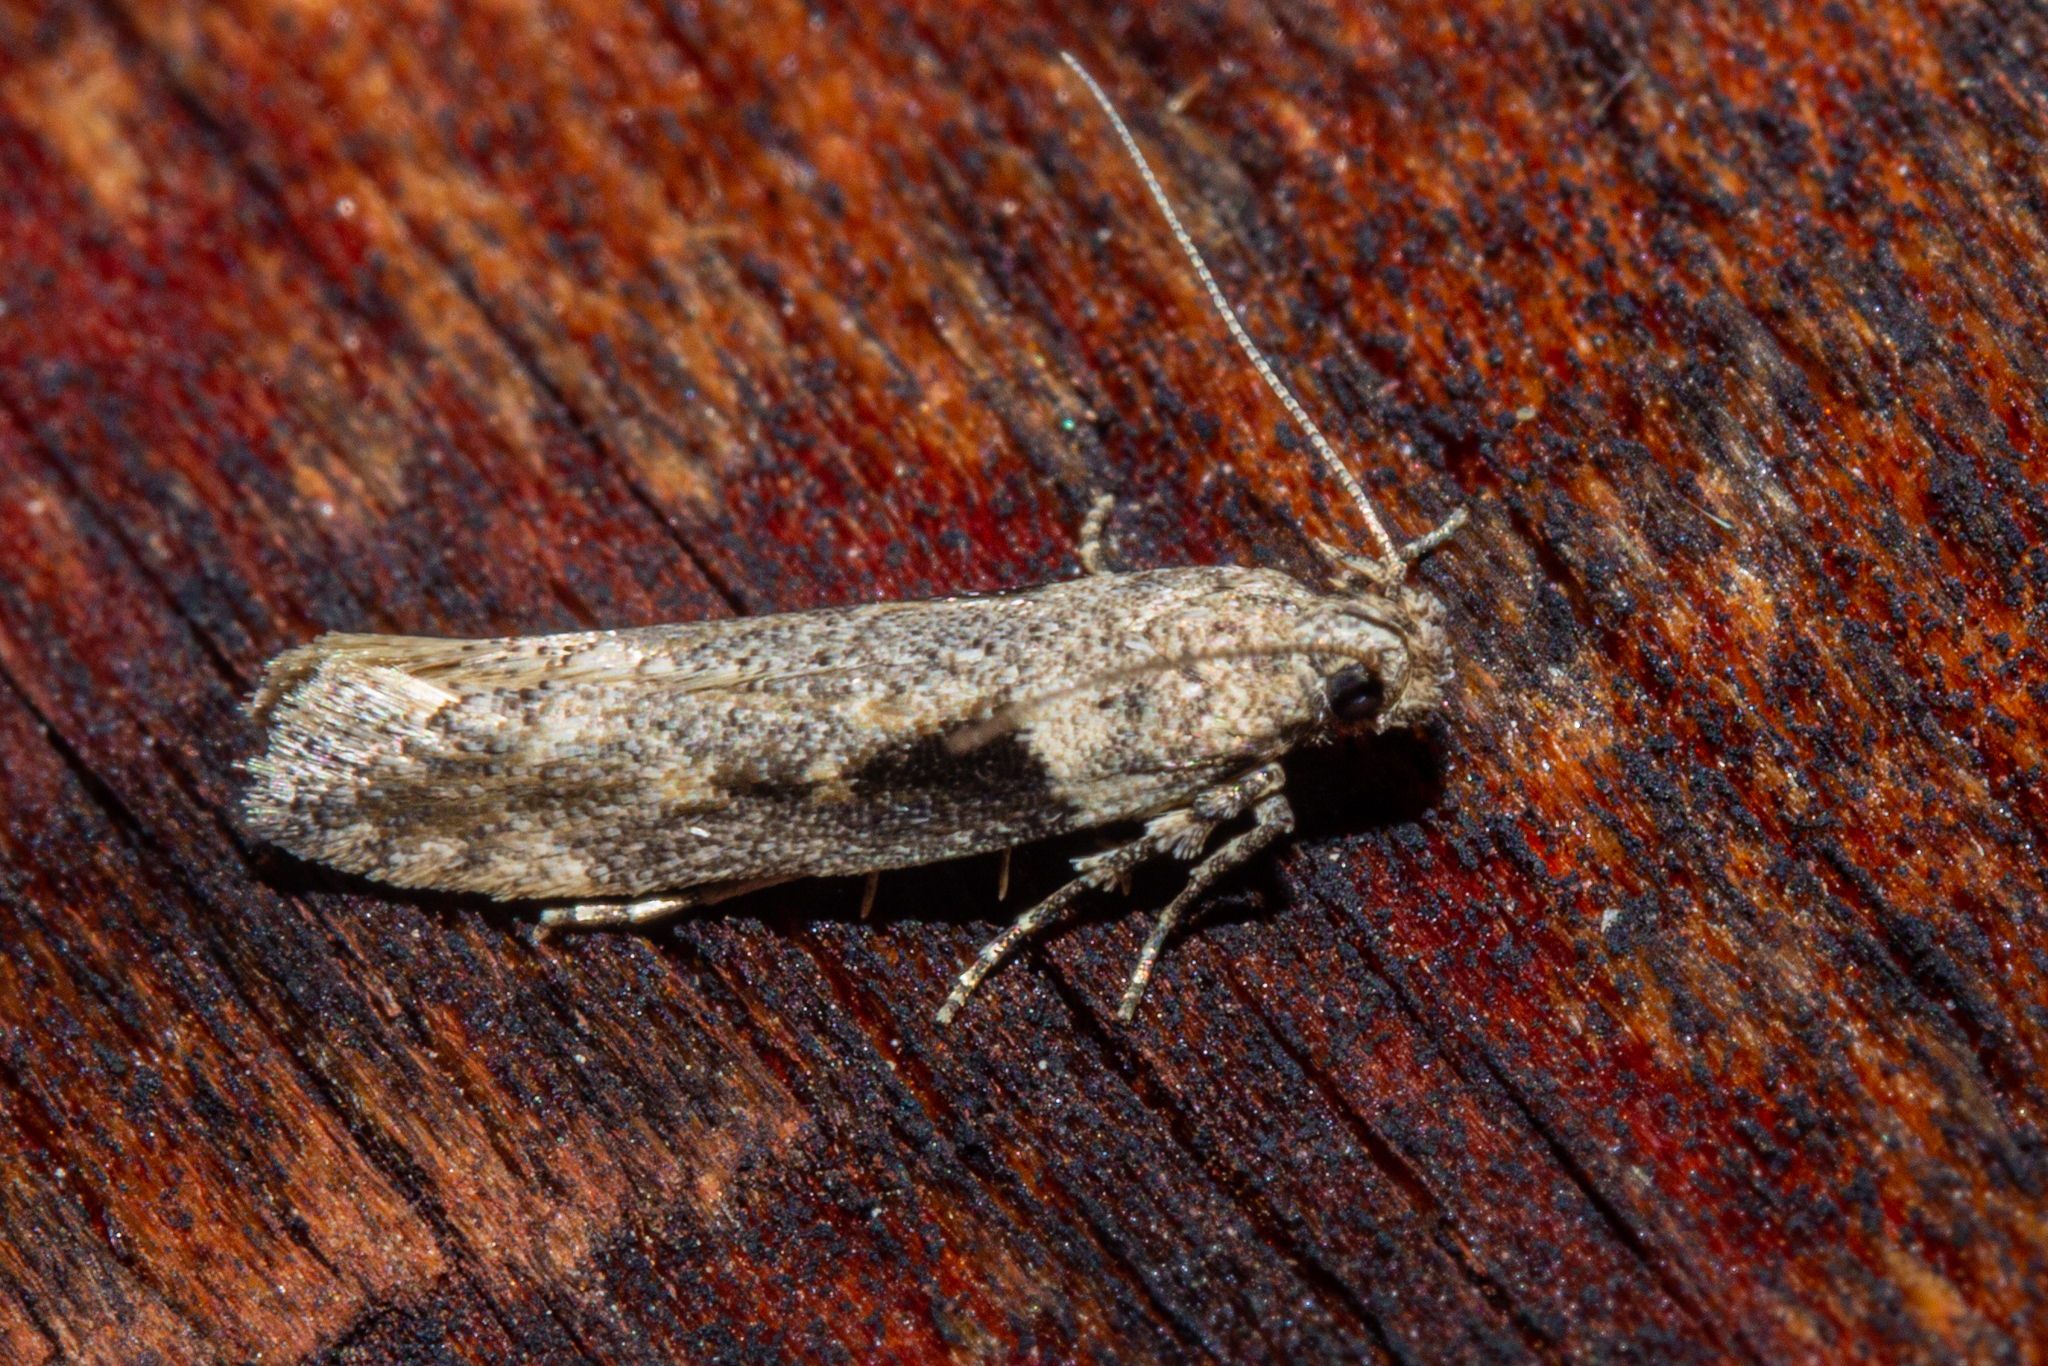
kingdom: Animalia
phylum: Arthropoda
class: Insecta
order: Lepidoptera
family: Gelechiidae
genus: Symmetrischema
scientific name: Symmetrischema tangolias
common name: Moth
